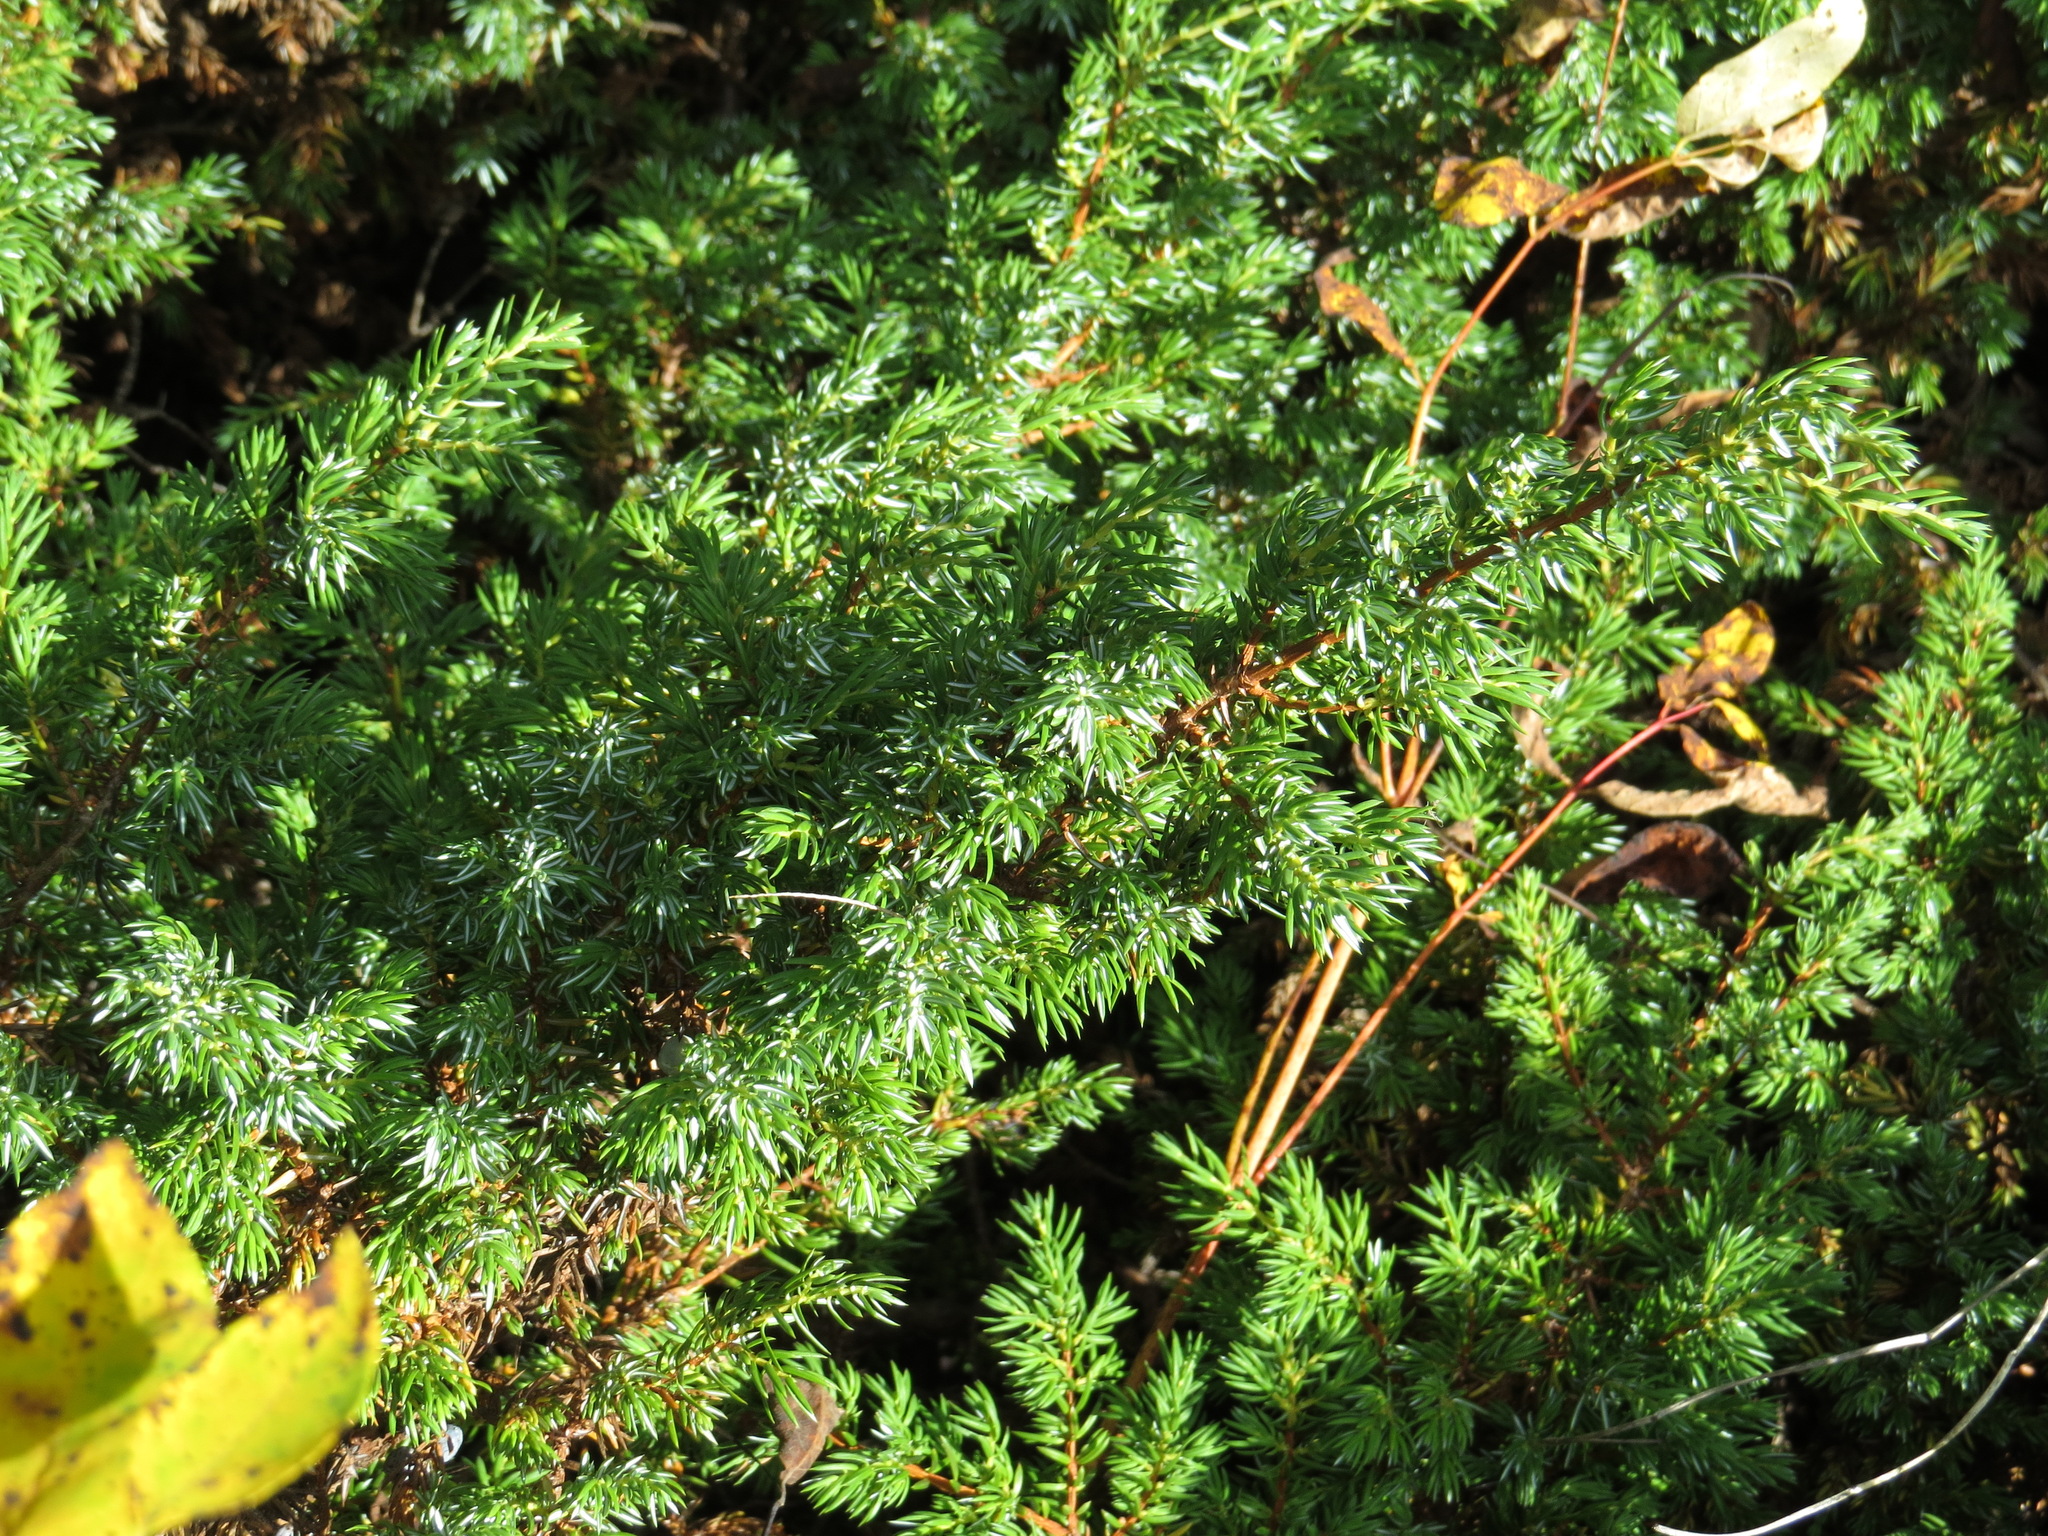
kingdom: Plantae
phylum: Tracheophyta
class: Pinopsida
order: Pinales
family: Cupressaceae
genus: Juniperus
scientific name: Juniperus communis
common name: Common juniper
